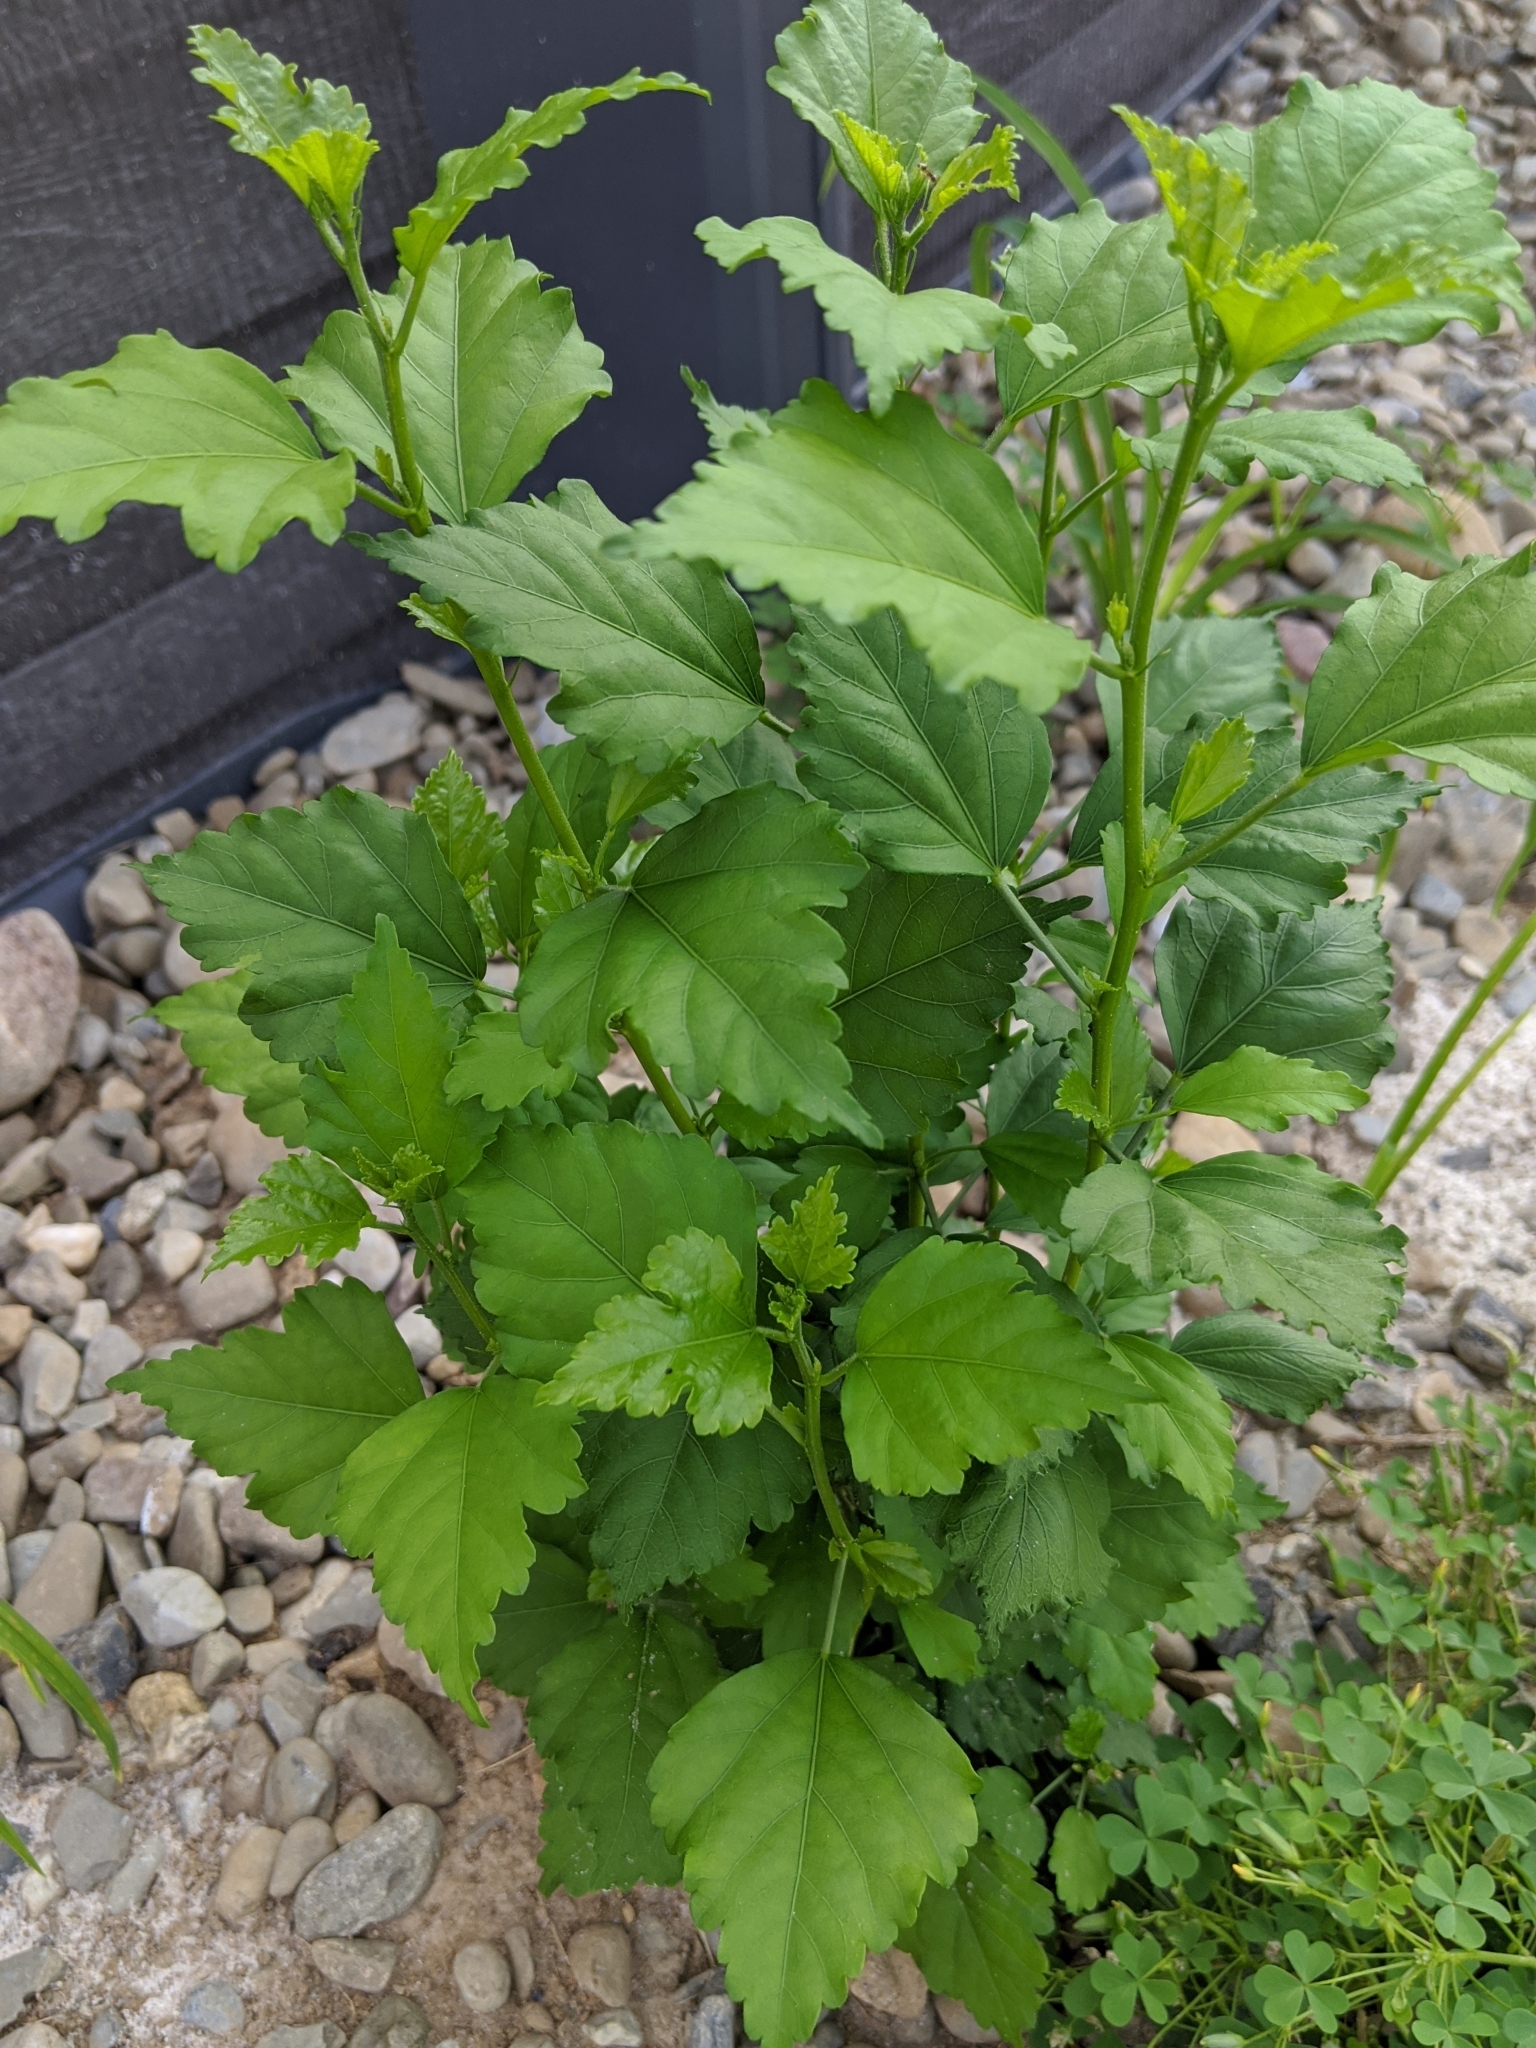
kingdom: Plantae
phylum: Tracheophyta
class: Magnoliopsida
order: Malvales
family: Malvaceae
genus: Hibiscus
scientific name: Hibiscus syriacus
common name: Syrian ketmia
